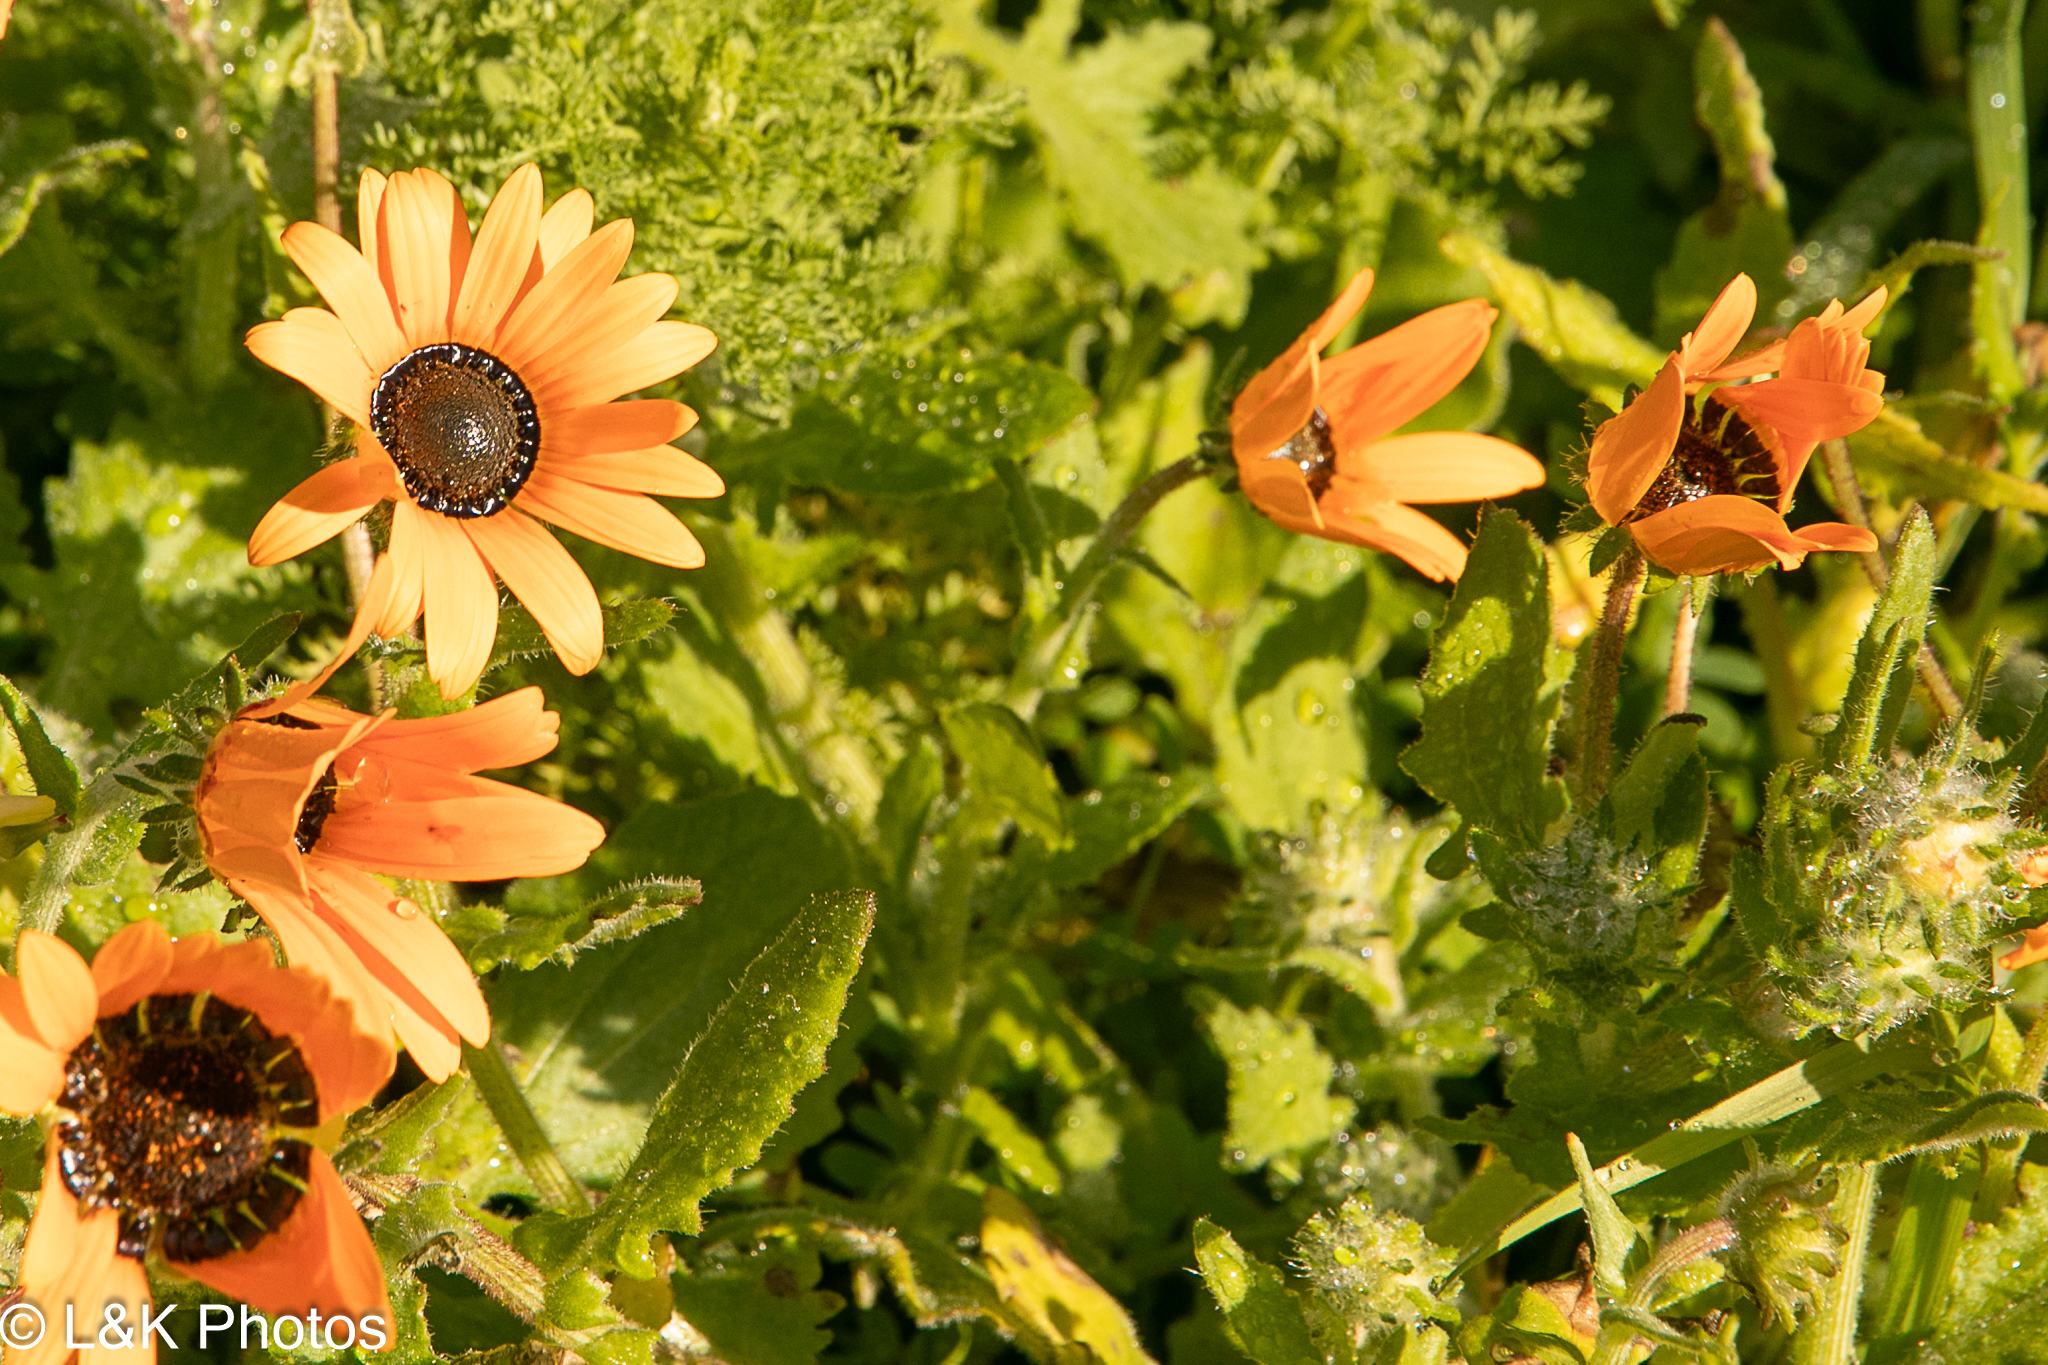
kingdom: Plantae
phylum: Tracheophyta
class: Magnoliopsida
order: Asterales
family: Asteraceae
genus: Arctotis
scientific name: Arctotis hirsuta
